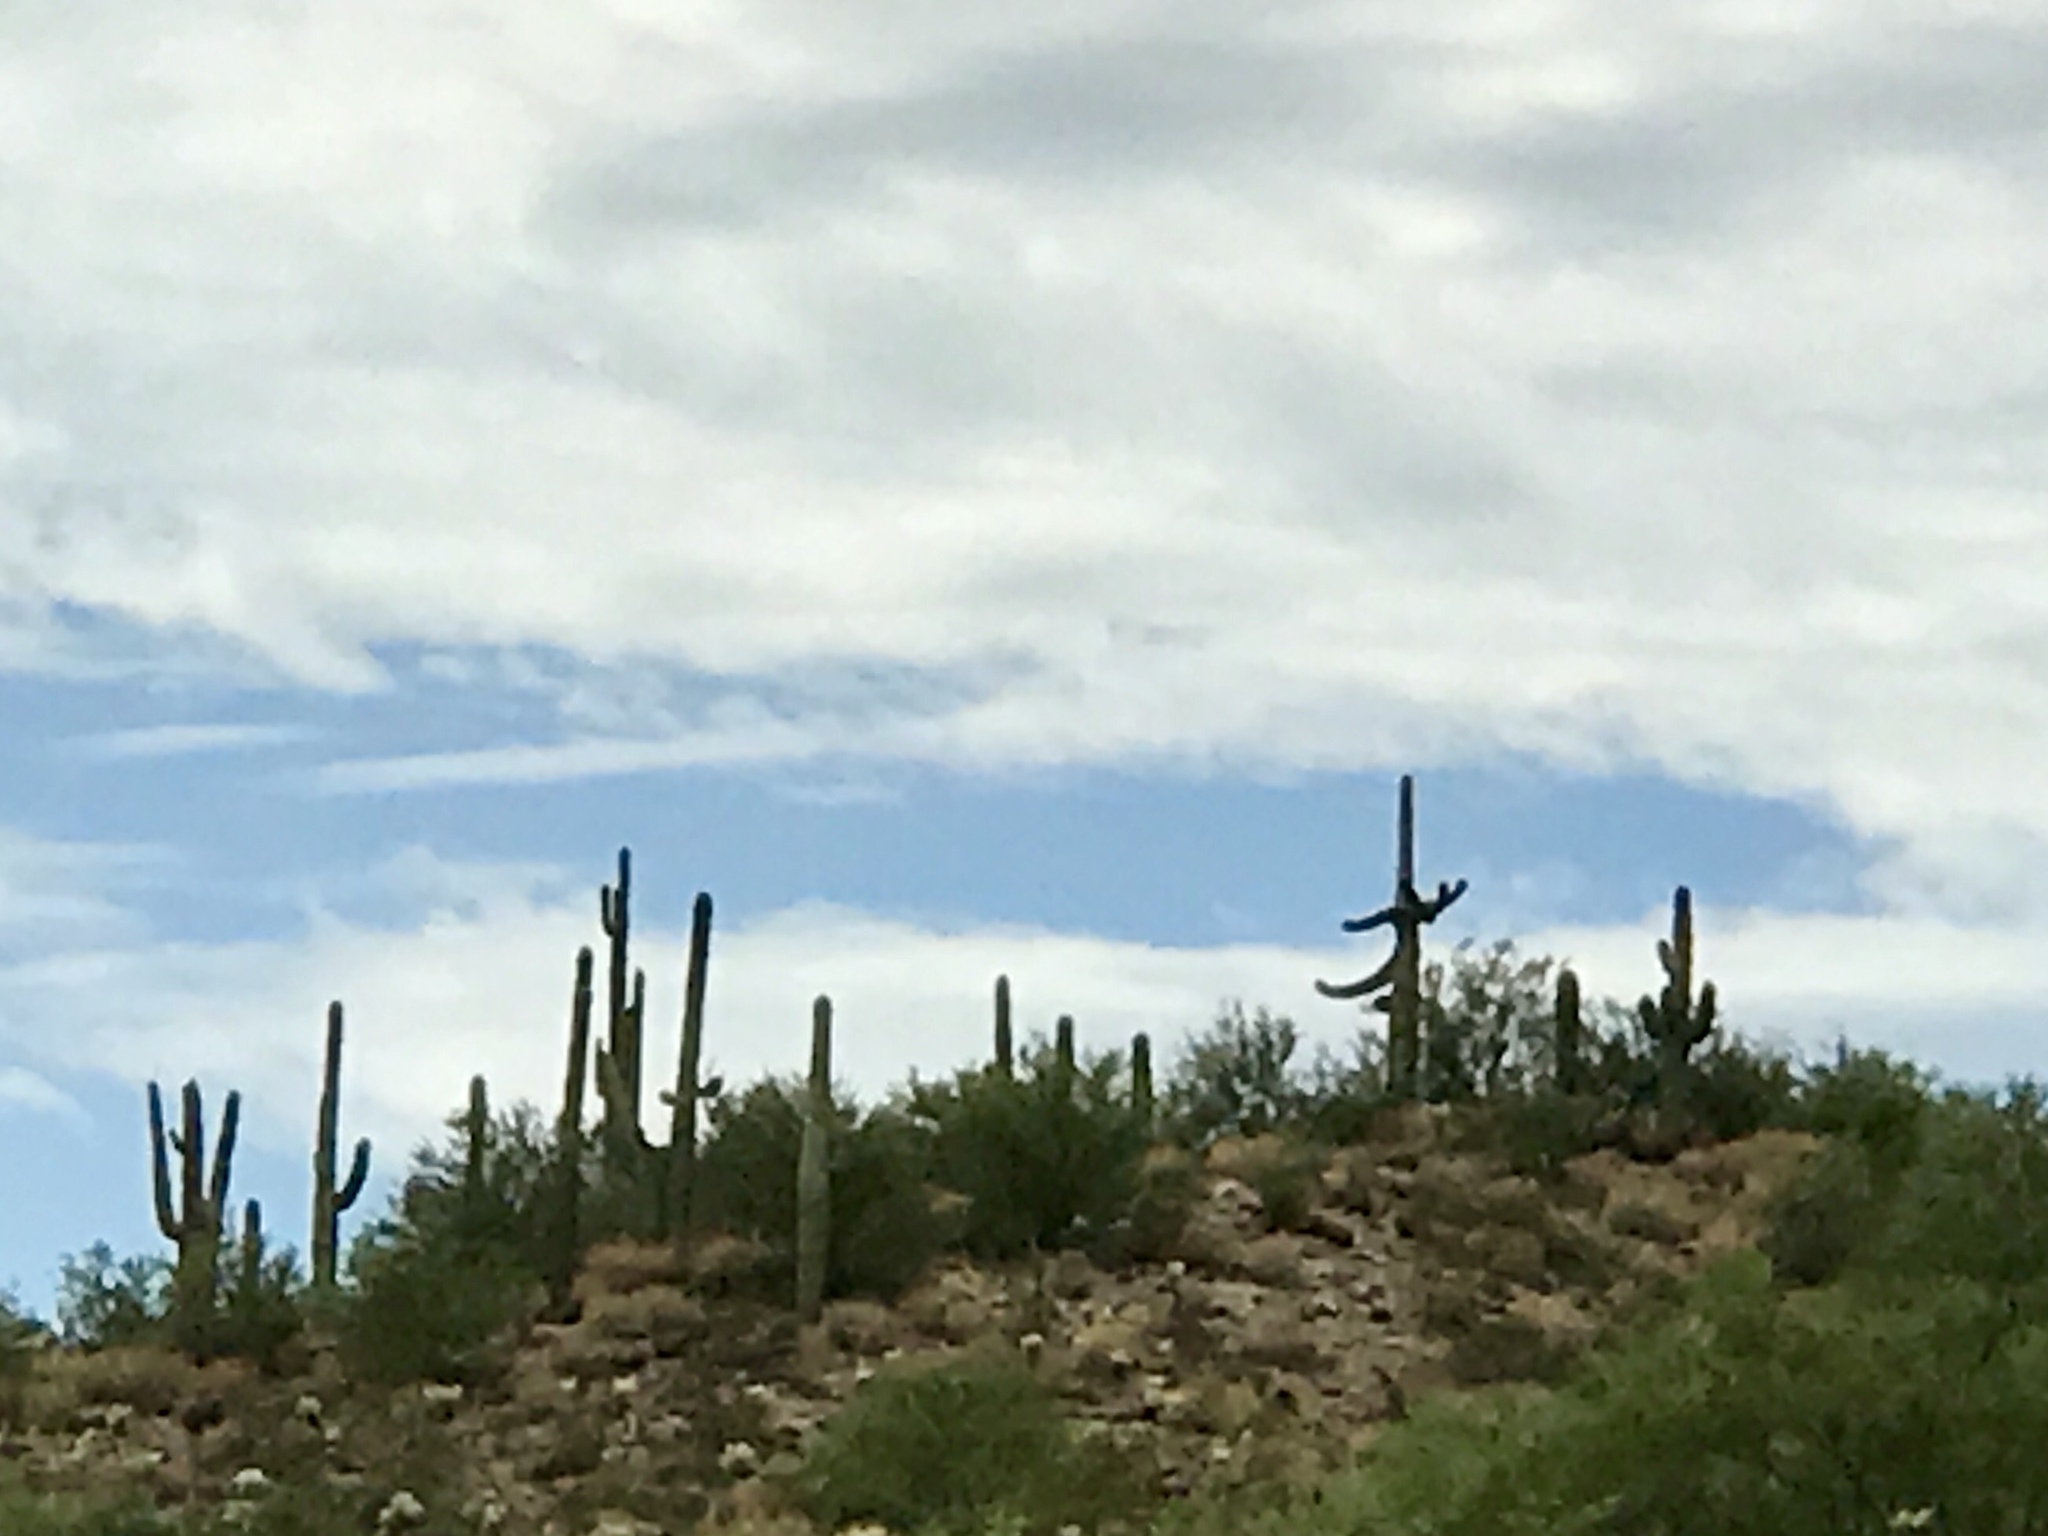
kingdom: Plantae
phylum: Tracheophyta
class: Magnoliopsida
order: Caryophyllales
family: Cactaceae
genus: Carnegiea
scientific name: Carnegiea gigantea
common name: Saguaro
